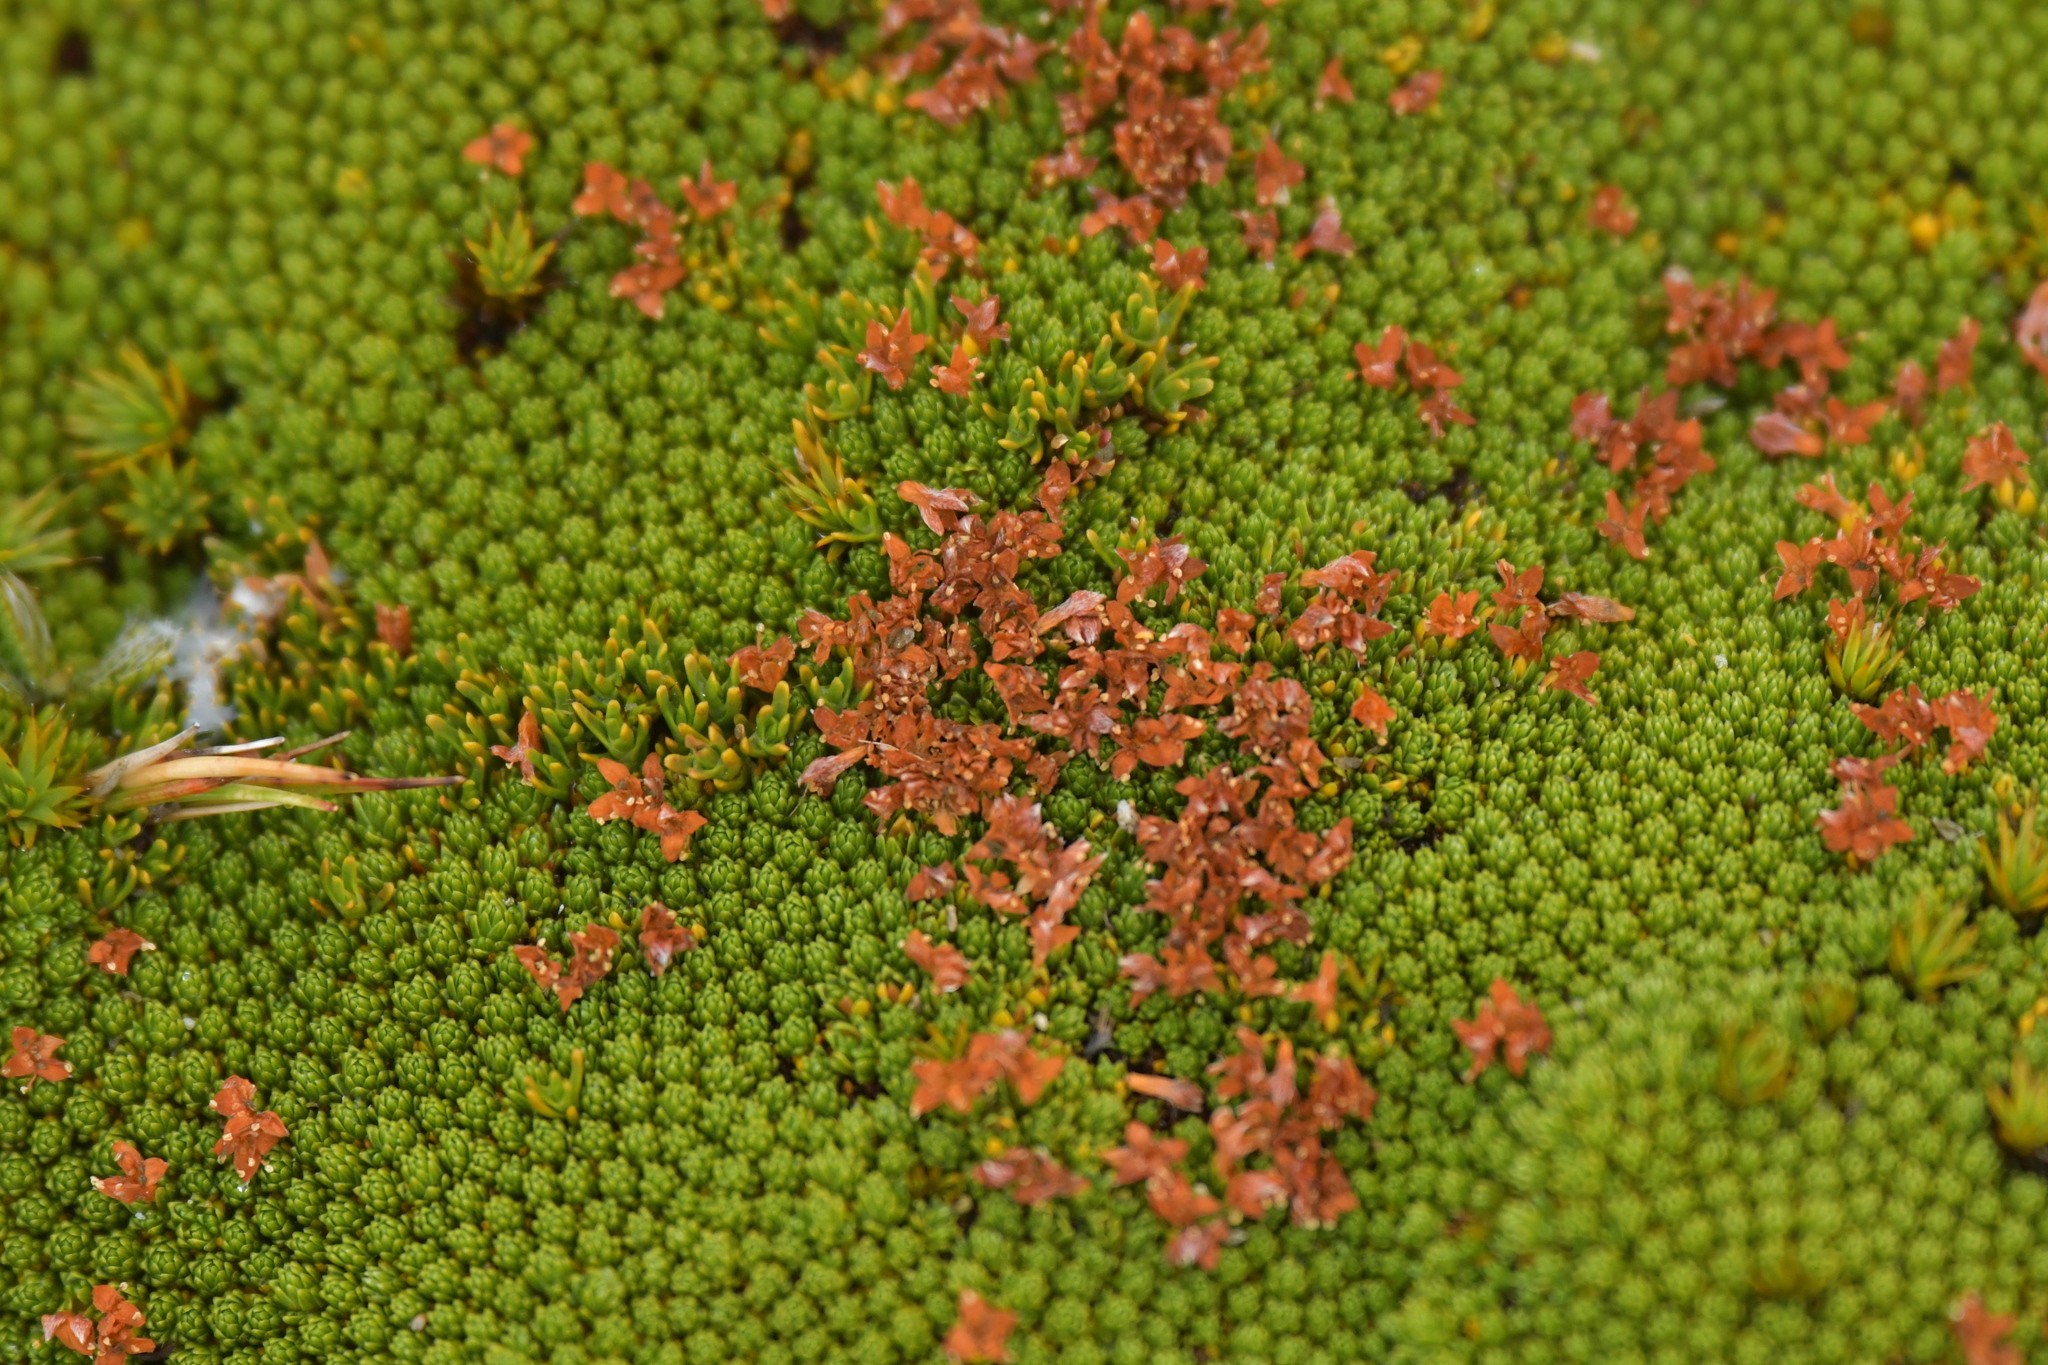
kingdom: Plantae
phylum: Tracheophyta
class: Magnoliopsida
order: Malvales
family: Thymelaeaceae
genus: Kelleria
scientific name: Kelleria childii
